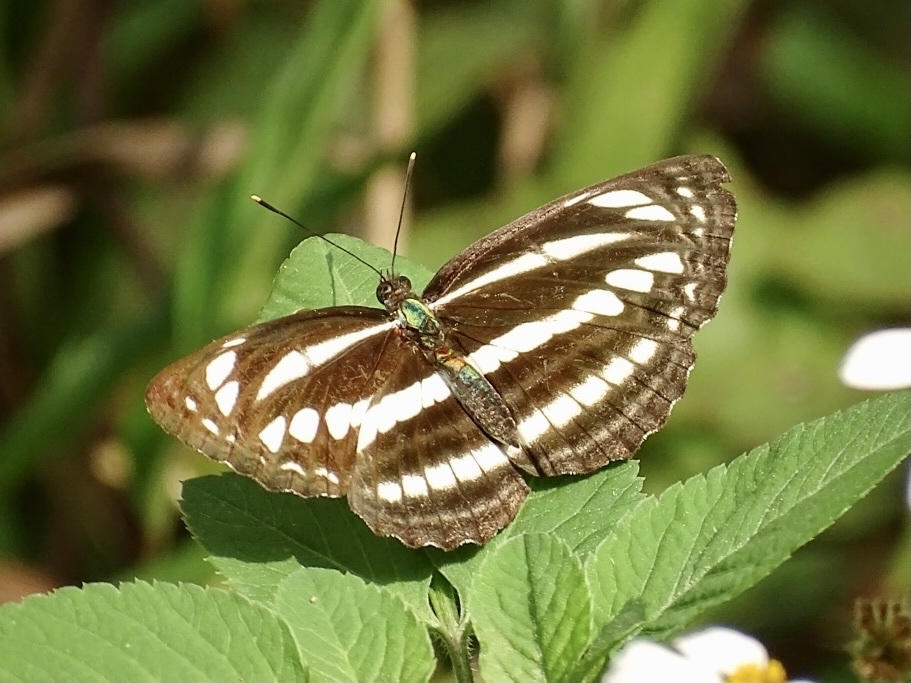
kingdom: Animalia
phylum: Arthropoda
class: Insecta
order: Lepidoptera
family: Nymphalidae
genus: Neptis
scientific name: Neptis clinia
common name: Southern sullied sailer
